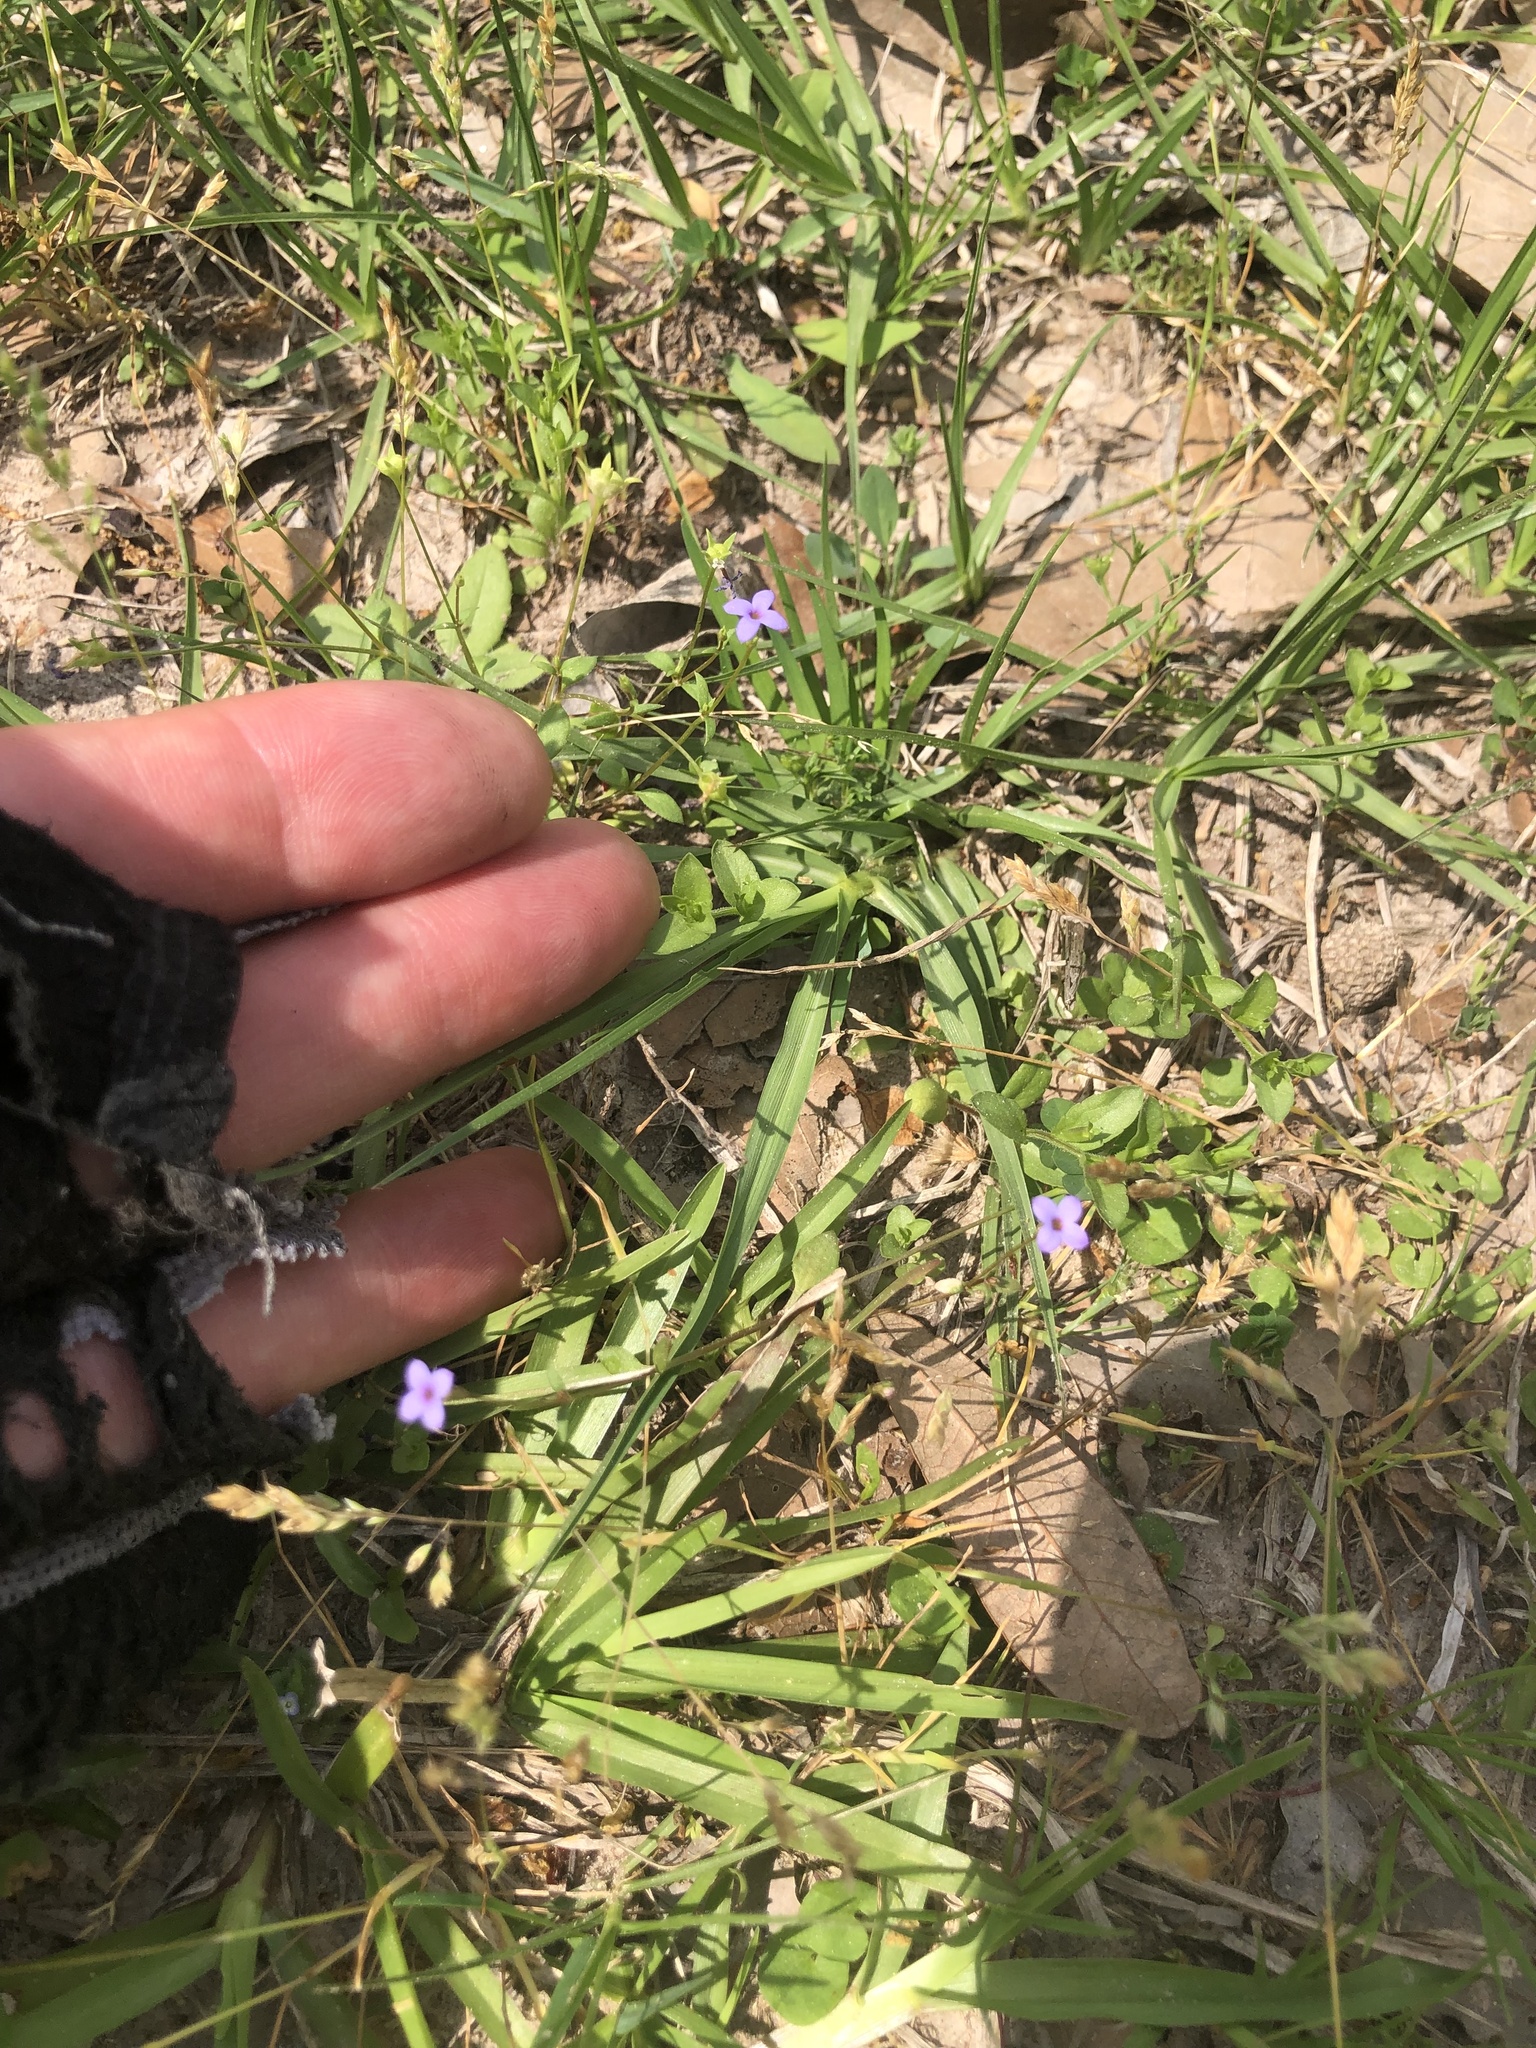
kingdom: Plantae
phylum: Tracheophyta
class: Magnoliopsida
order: Gentianales
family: Rubiaceae
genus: Houstonia
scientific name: Houstonia pusilla
